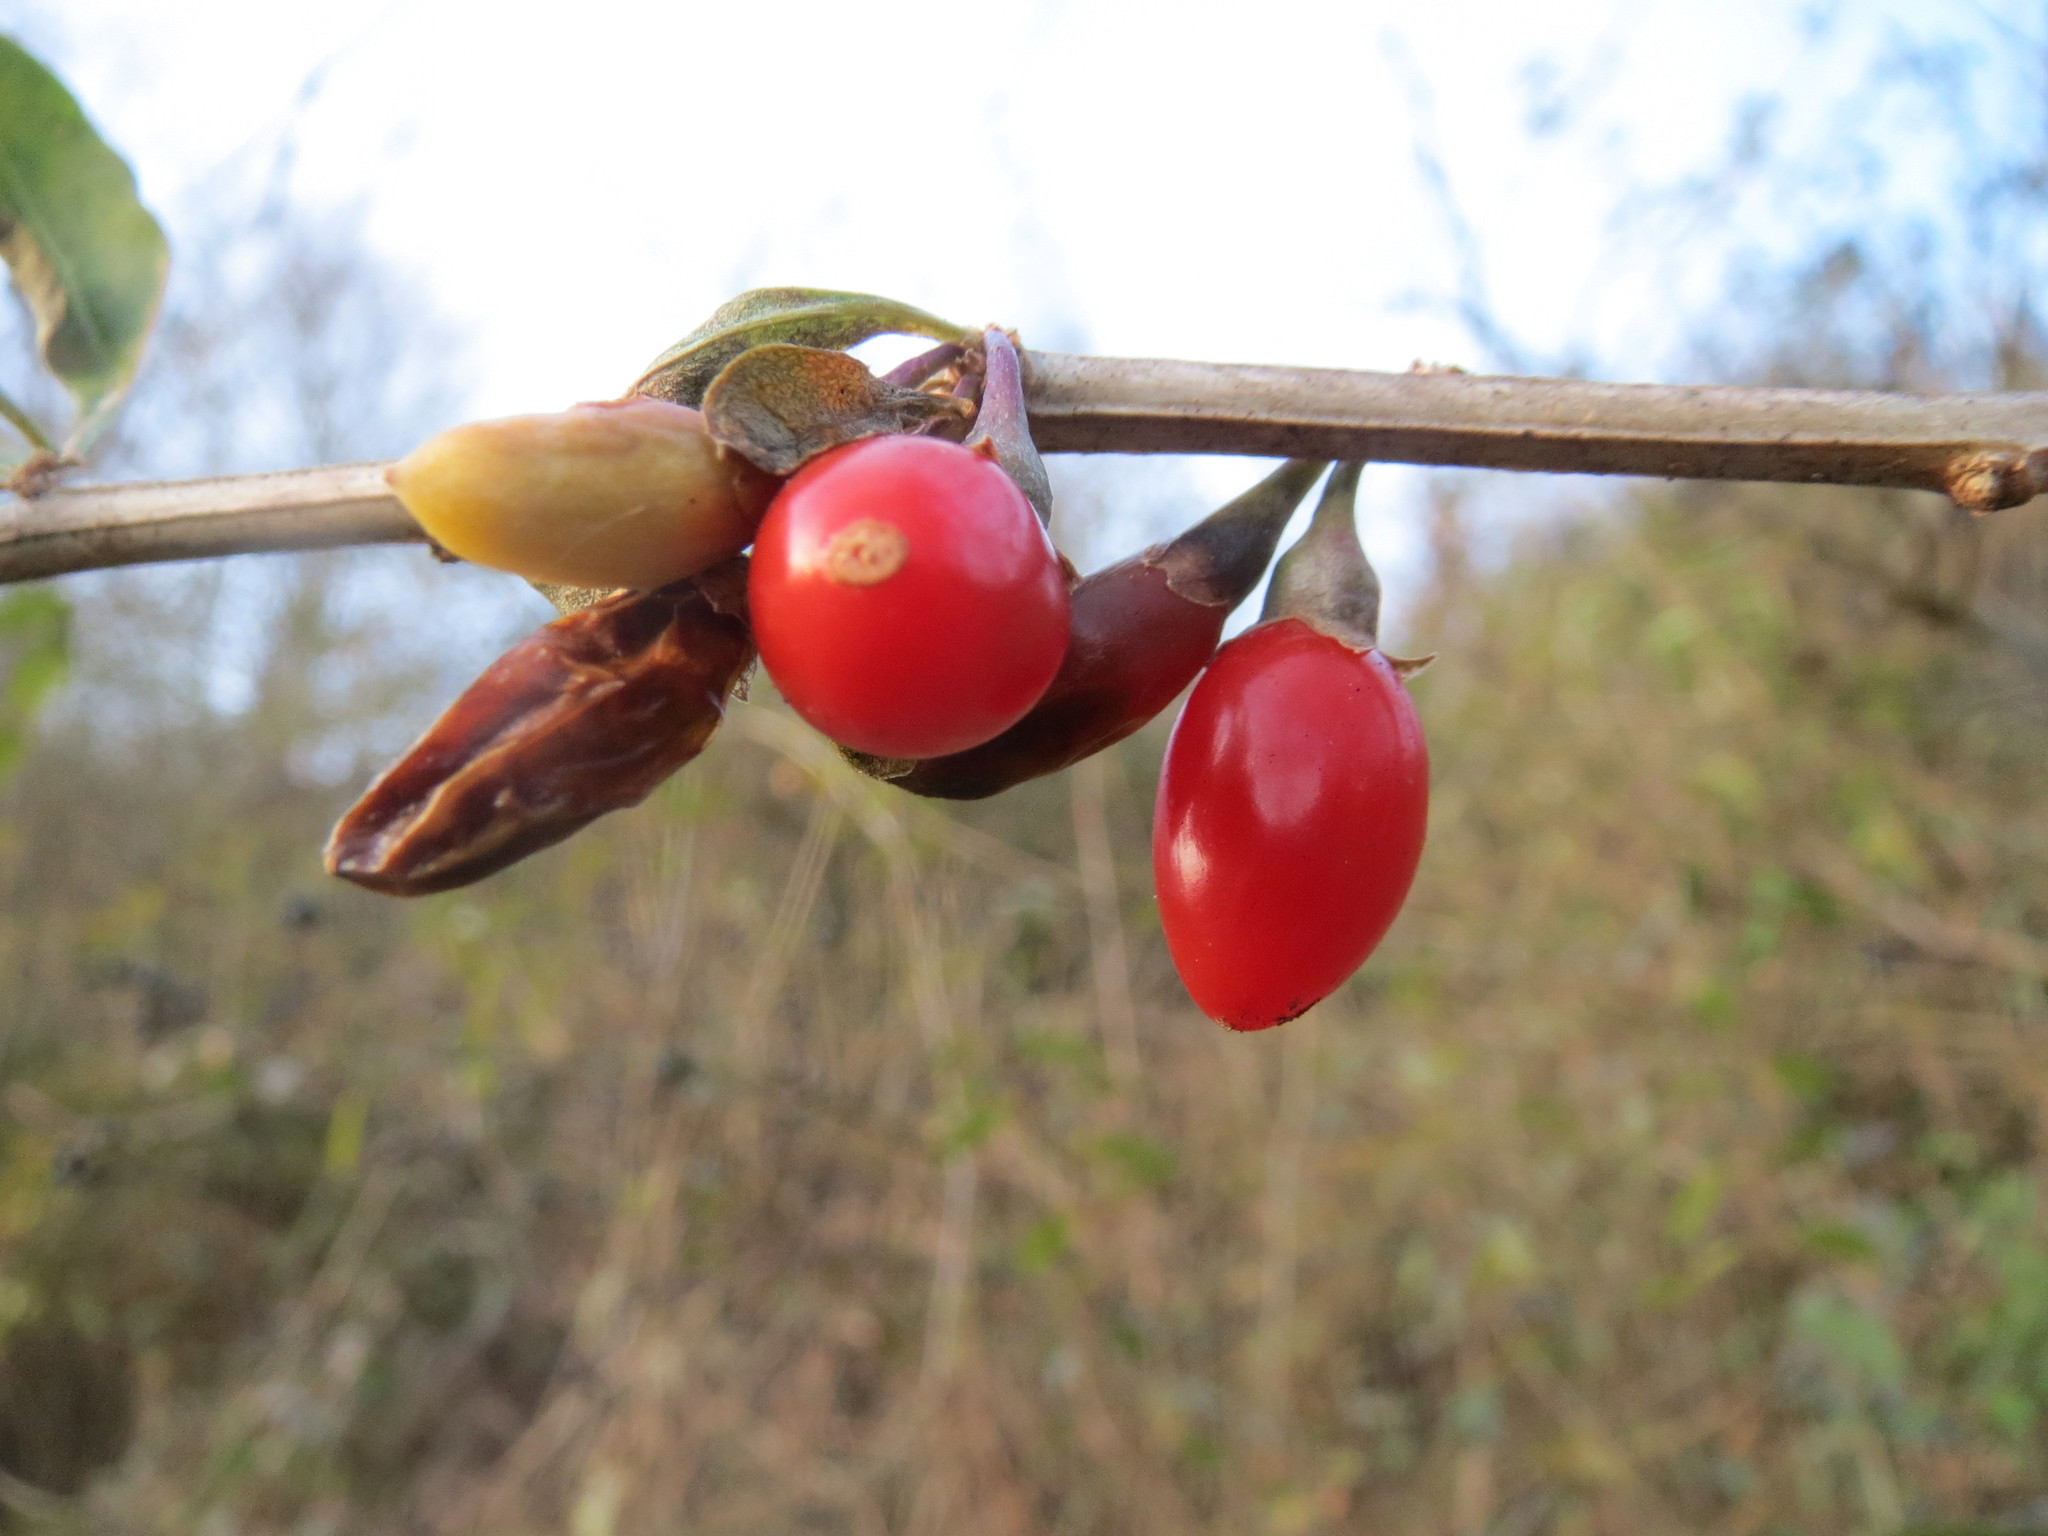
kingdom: Plantae
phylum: Tracheophyta
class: Magnoliopsida
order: Solanales
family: Solanaceae
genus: Lycium
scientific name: Lycium barbarum
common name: Duke of argyll's teaplant
